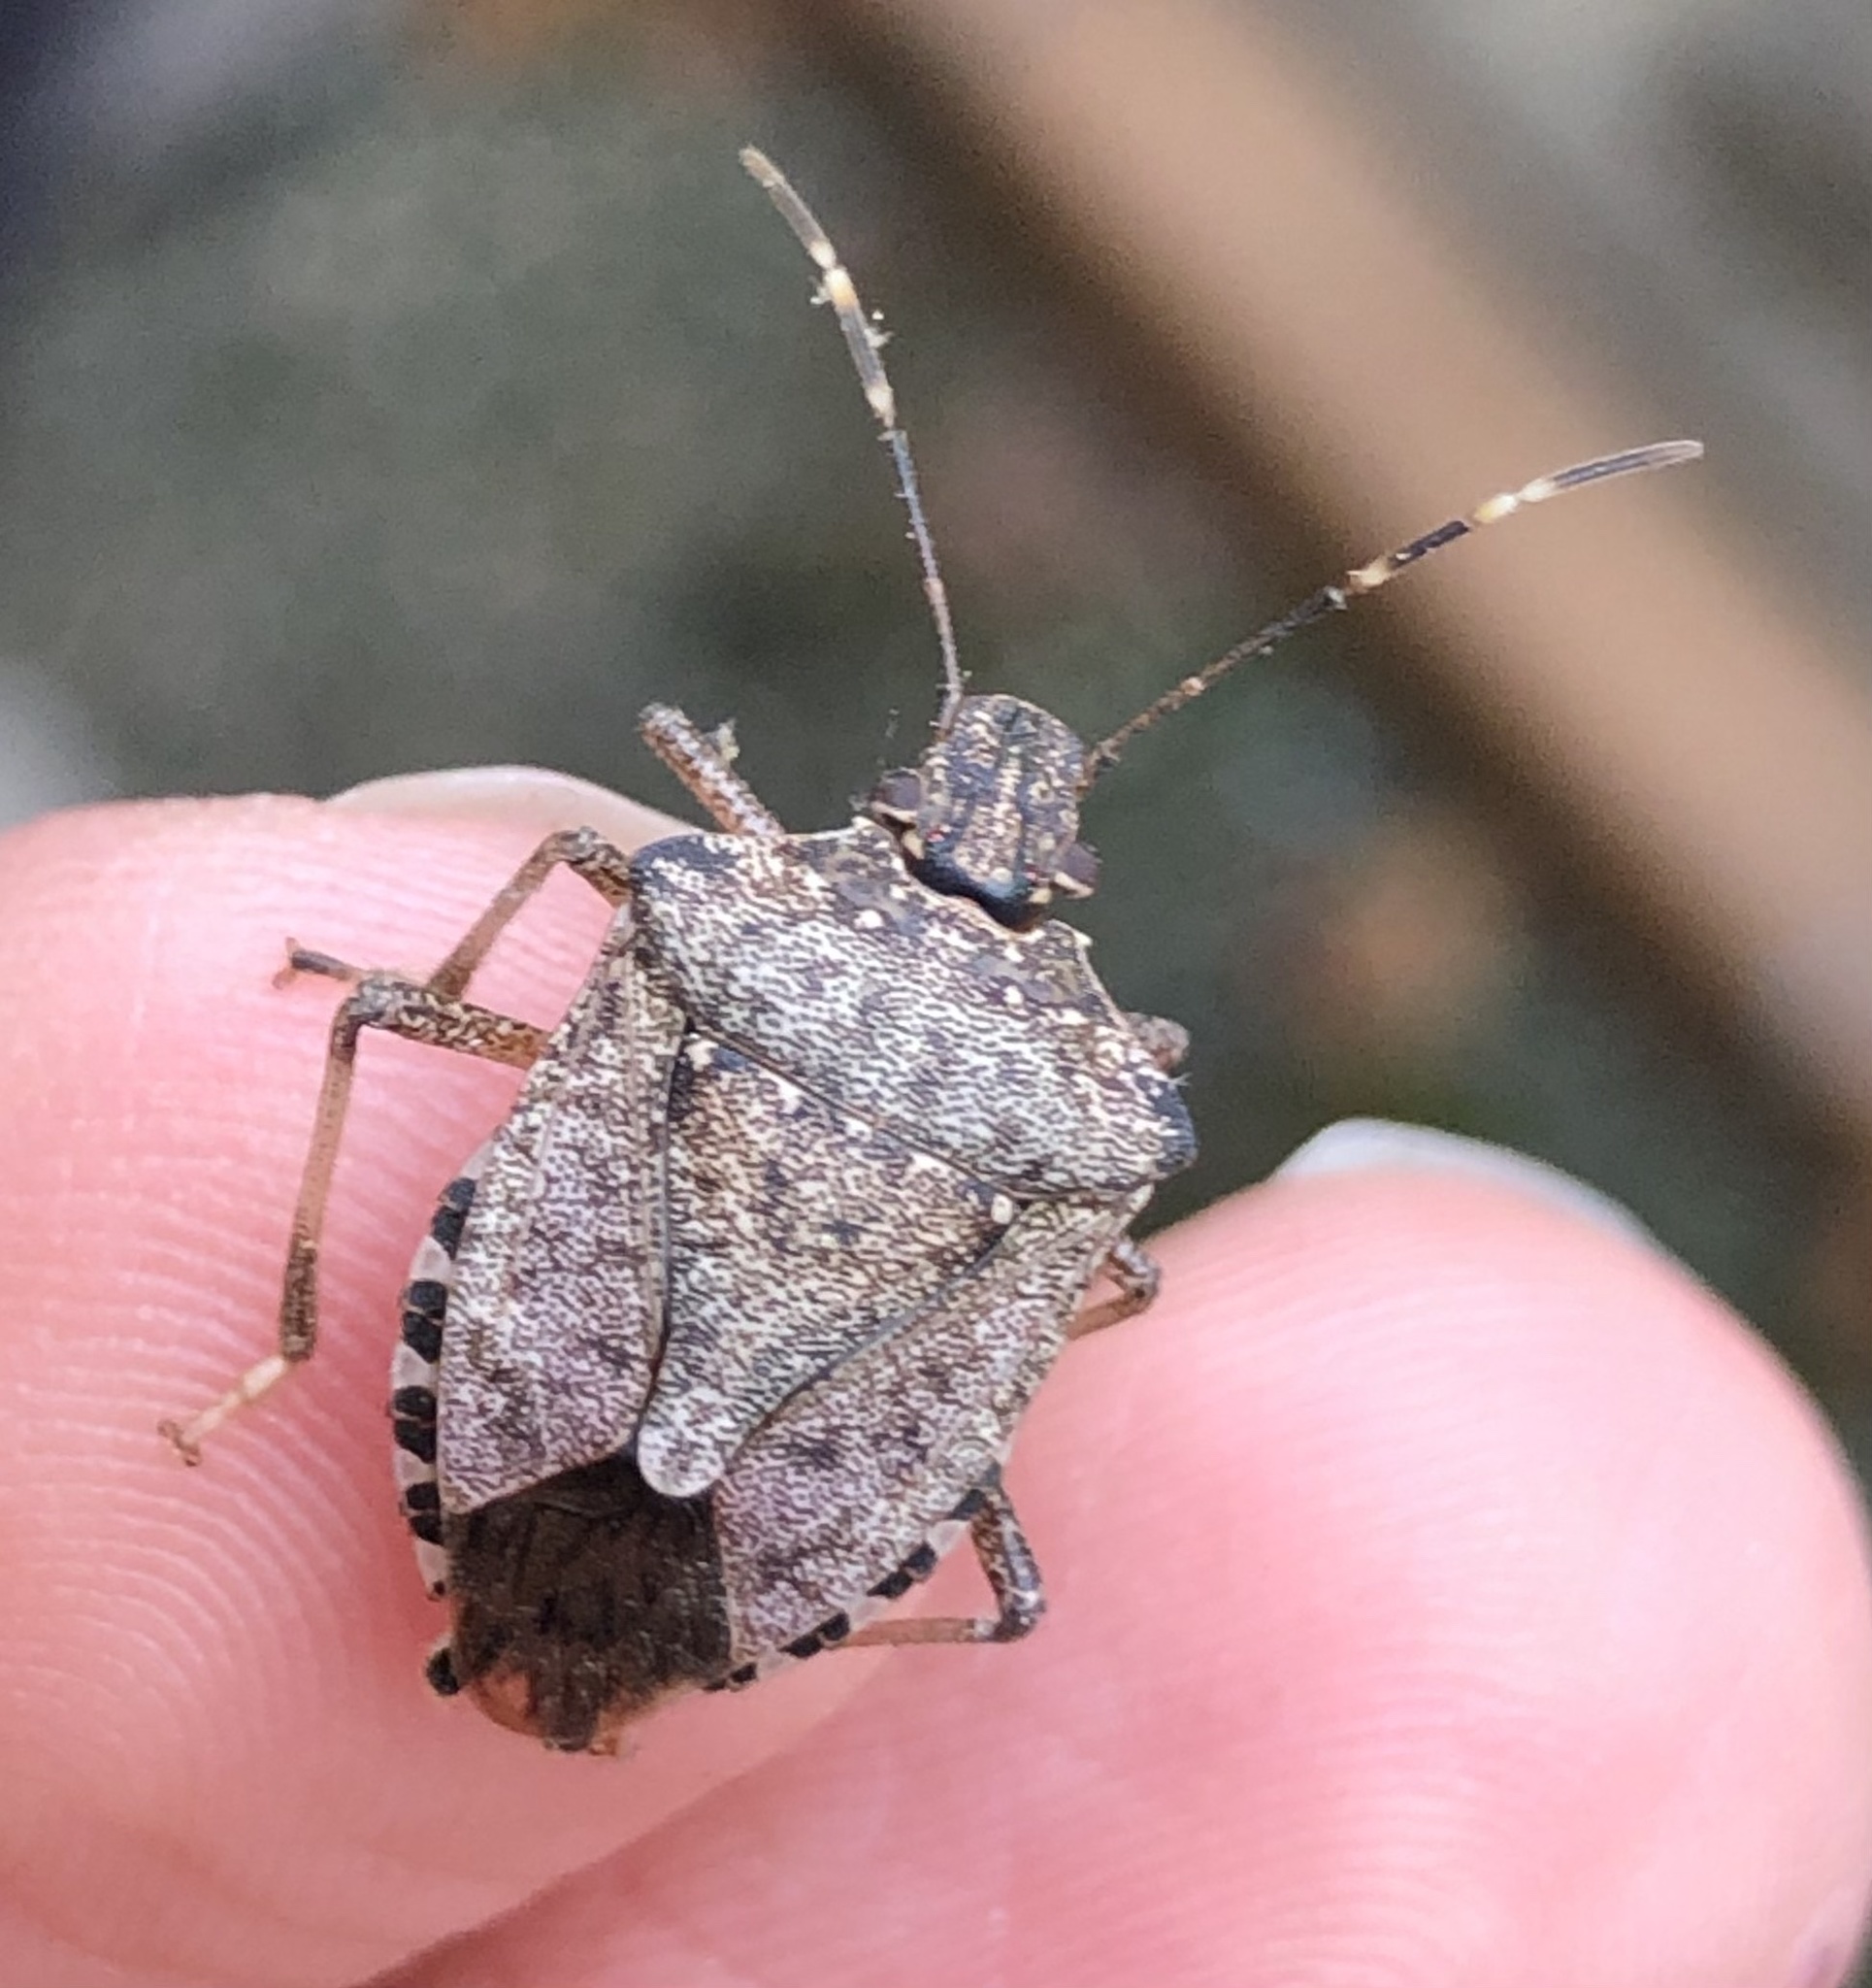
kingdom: Animalia
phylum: Arthropoda
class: Insecta
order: Hemiptera
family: Pentatomidae
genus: Halyomorpha
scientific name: Halyomorpha halys
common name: Brown marmorated stink bug
